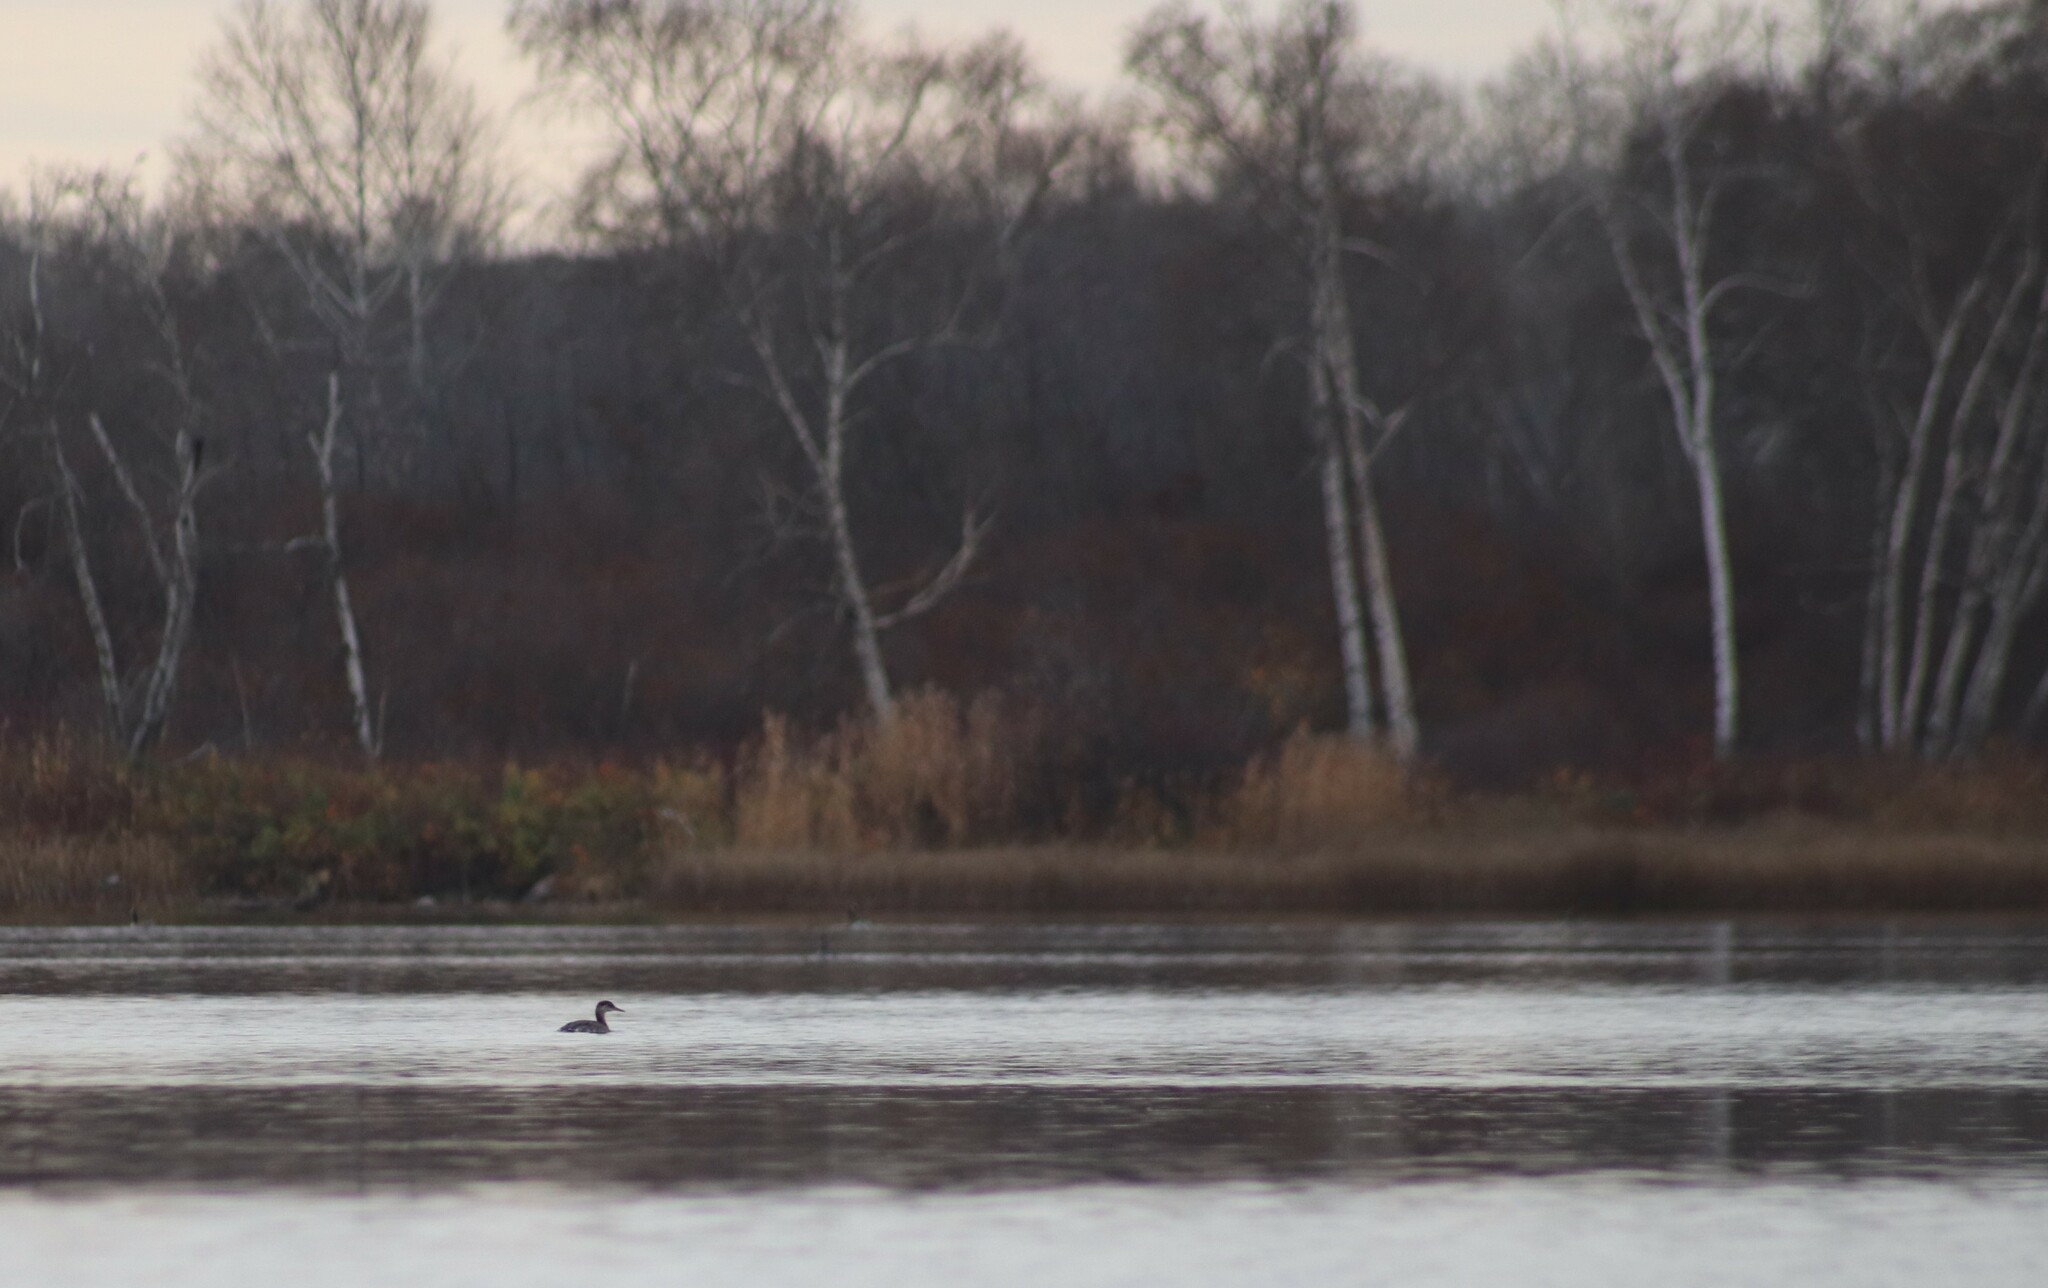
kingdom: Animalia
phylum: Chordata
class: Aves
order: Podicipediformes
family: Podicipedidae
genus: Podiceps
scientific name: Podiceps grisegena
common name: Red-necked grebe
